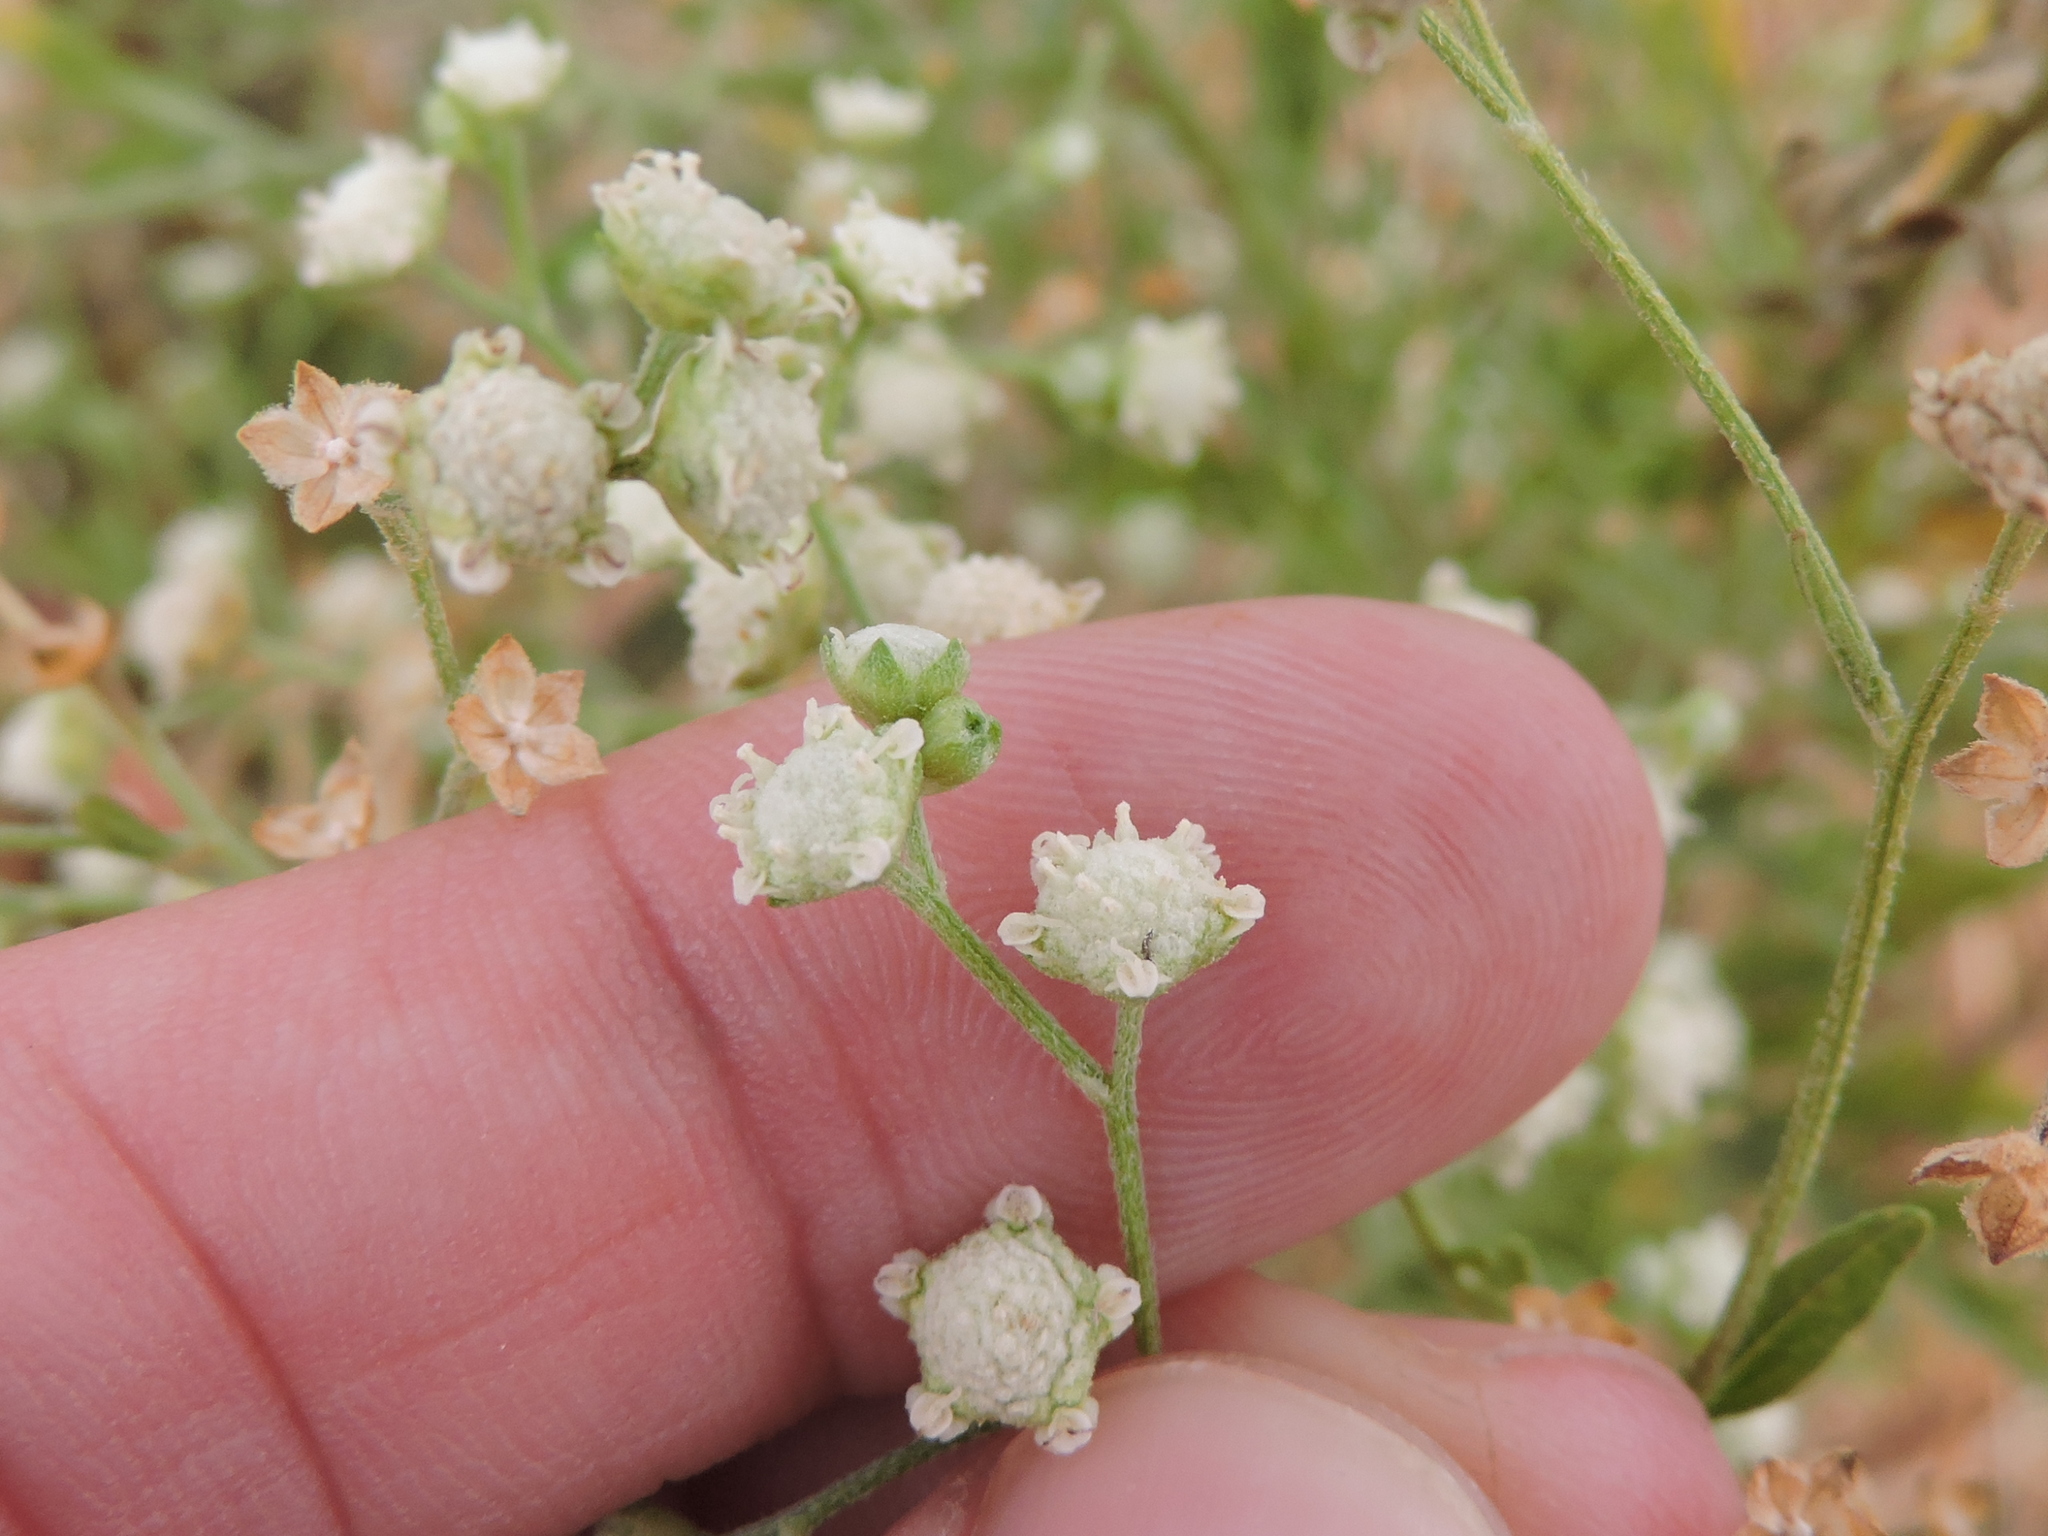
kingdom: Plantae
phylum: Tracheophyta
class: Magnoliopsida
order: Asterales
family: Asteraceae
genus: Parthenium
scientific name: Parthenium hysterophorus
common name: Santa maria feverfew
